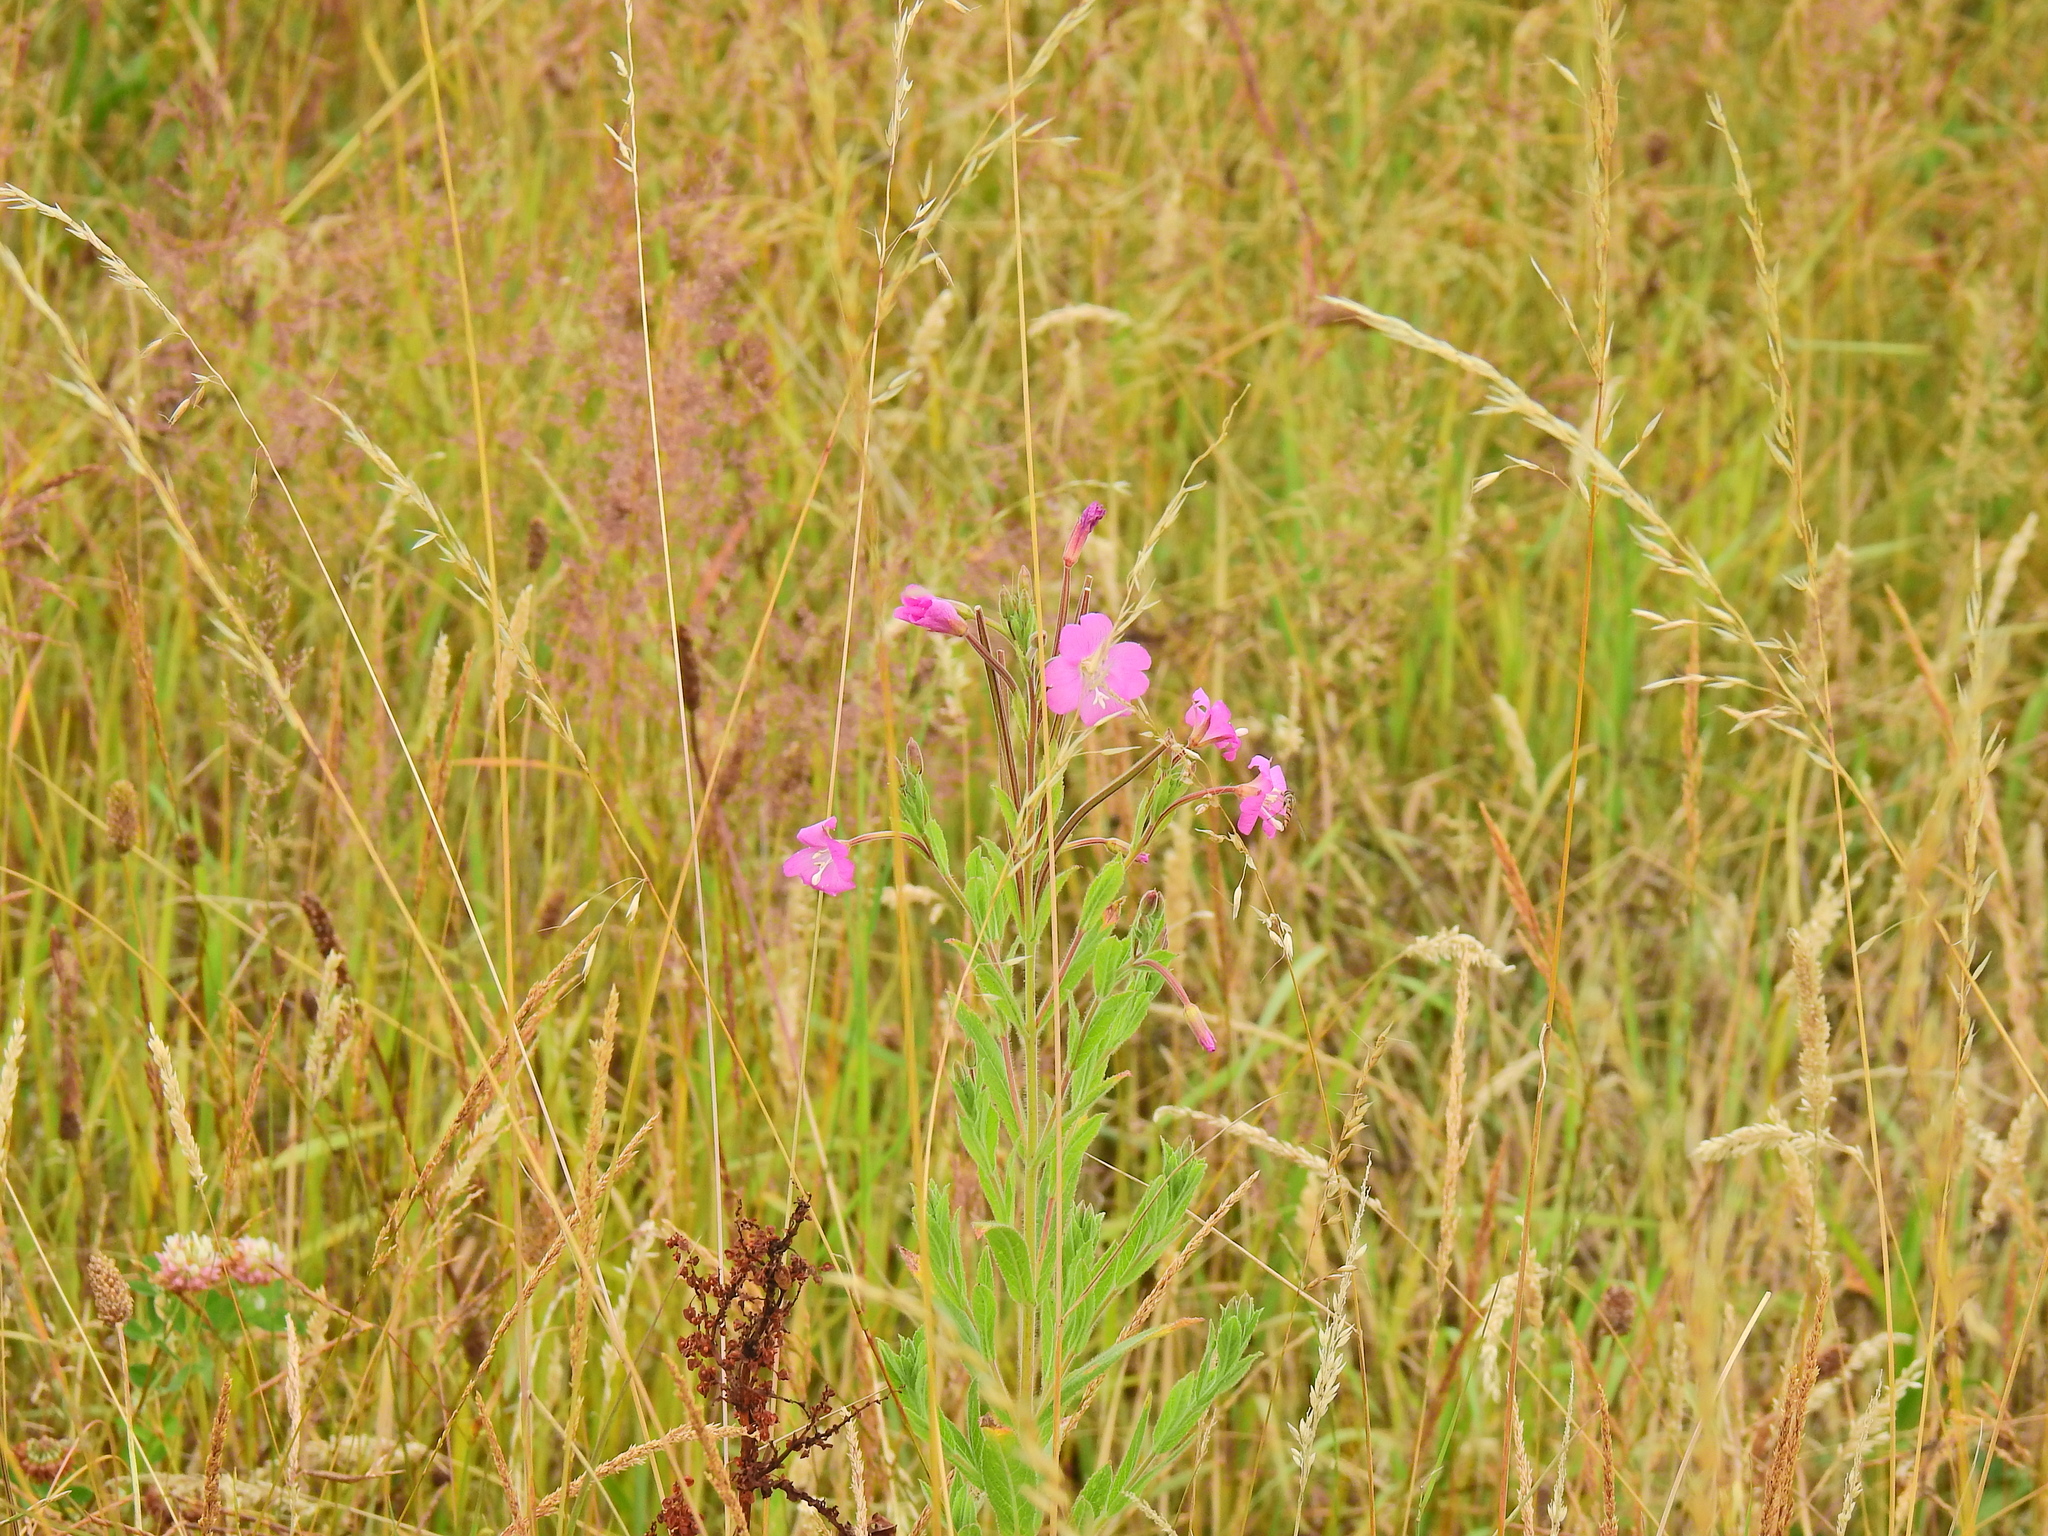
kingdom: Plantae
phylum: Tracheophyta
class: Magnoliopsida
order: Myrtales
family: Onagraceae
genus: Epilobium
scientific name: Epilobium hirsutum
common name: Great willowherb
